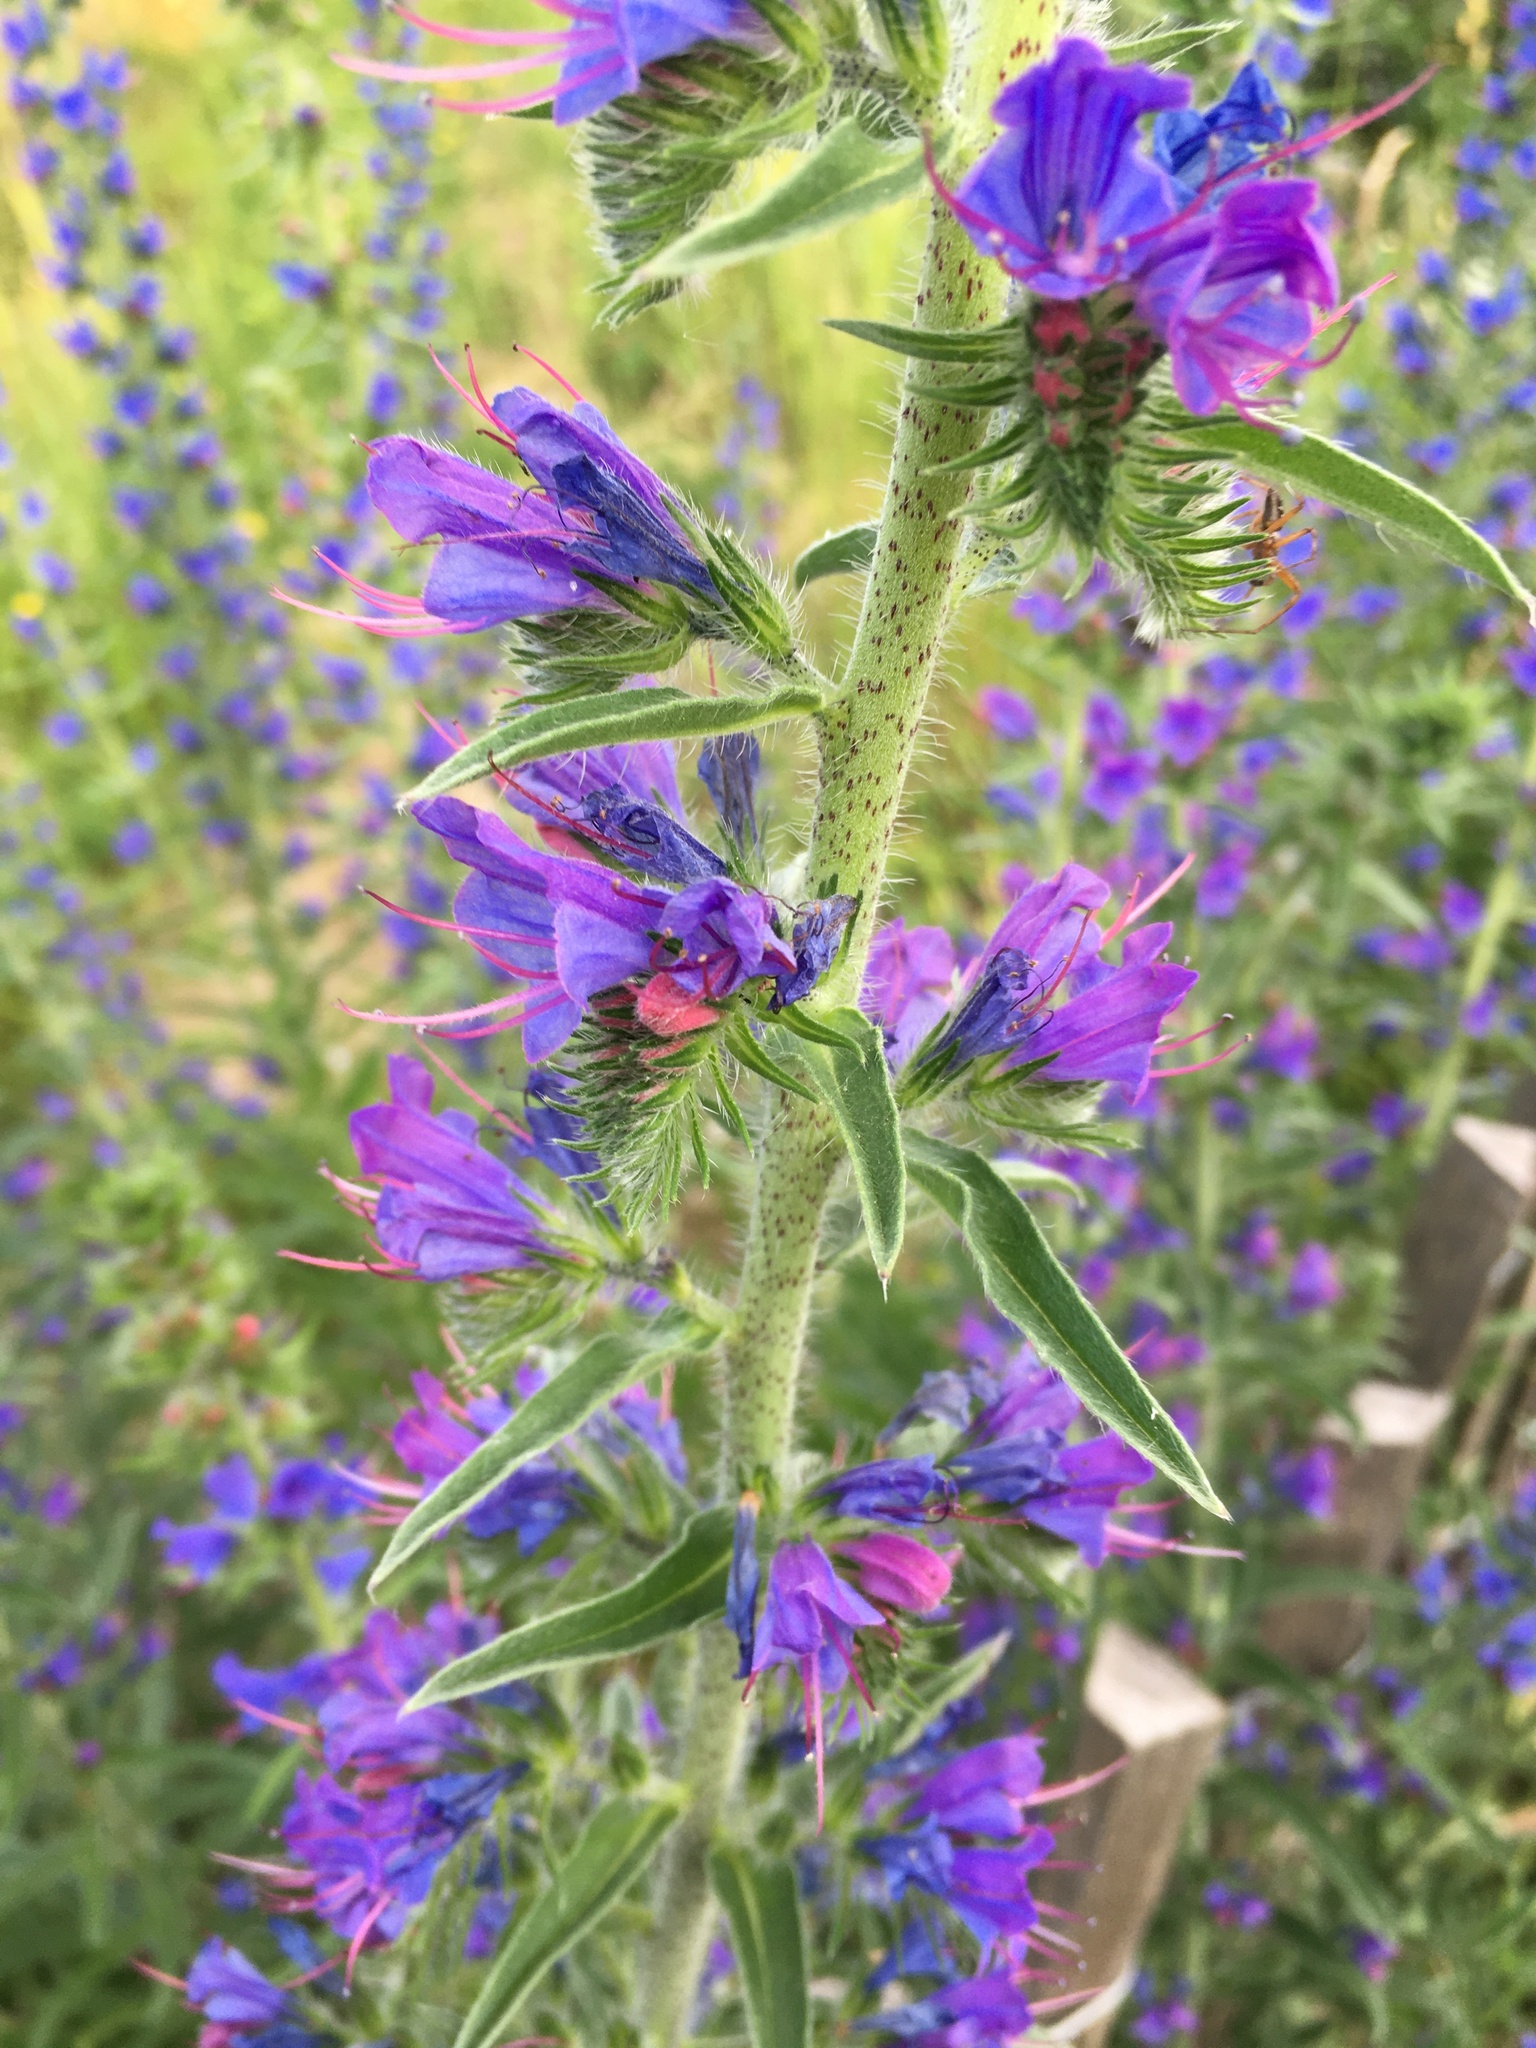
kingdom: Plantae
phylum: Tracheophyta
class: Magnoliopsida
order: Boraginales
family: Boraginaceae
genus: Echium
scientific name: Echium vulgare
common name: Common viper's bugloss
